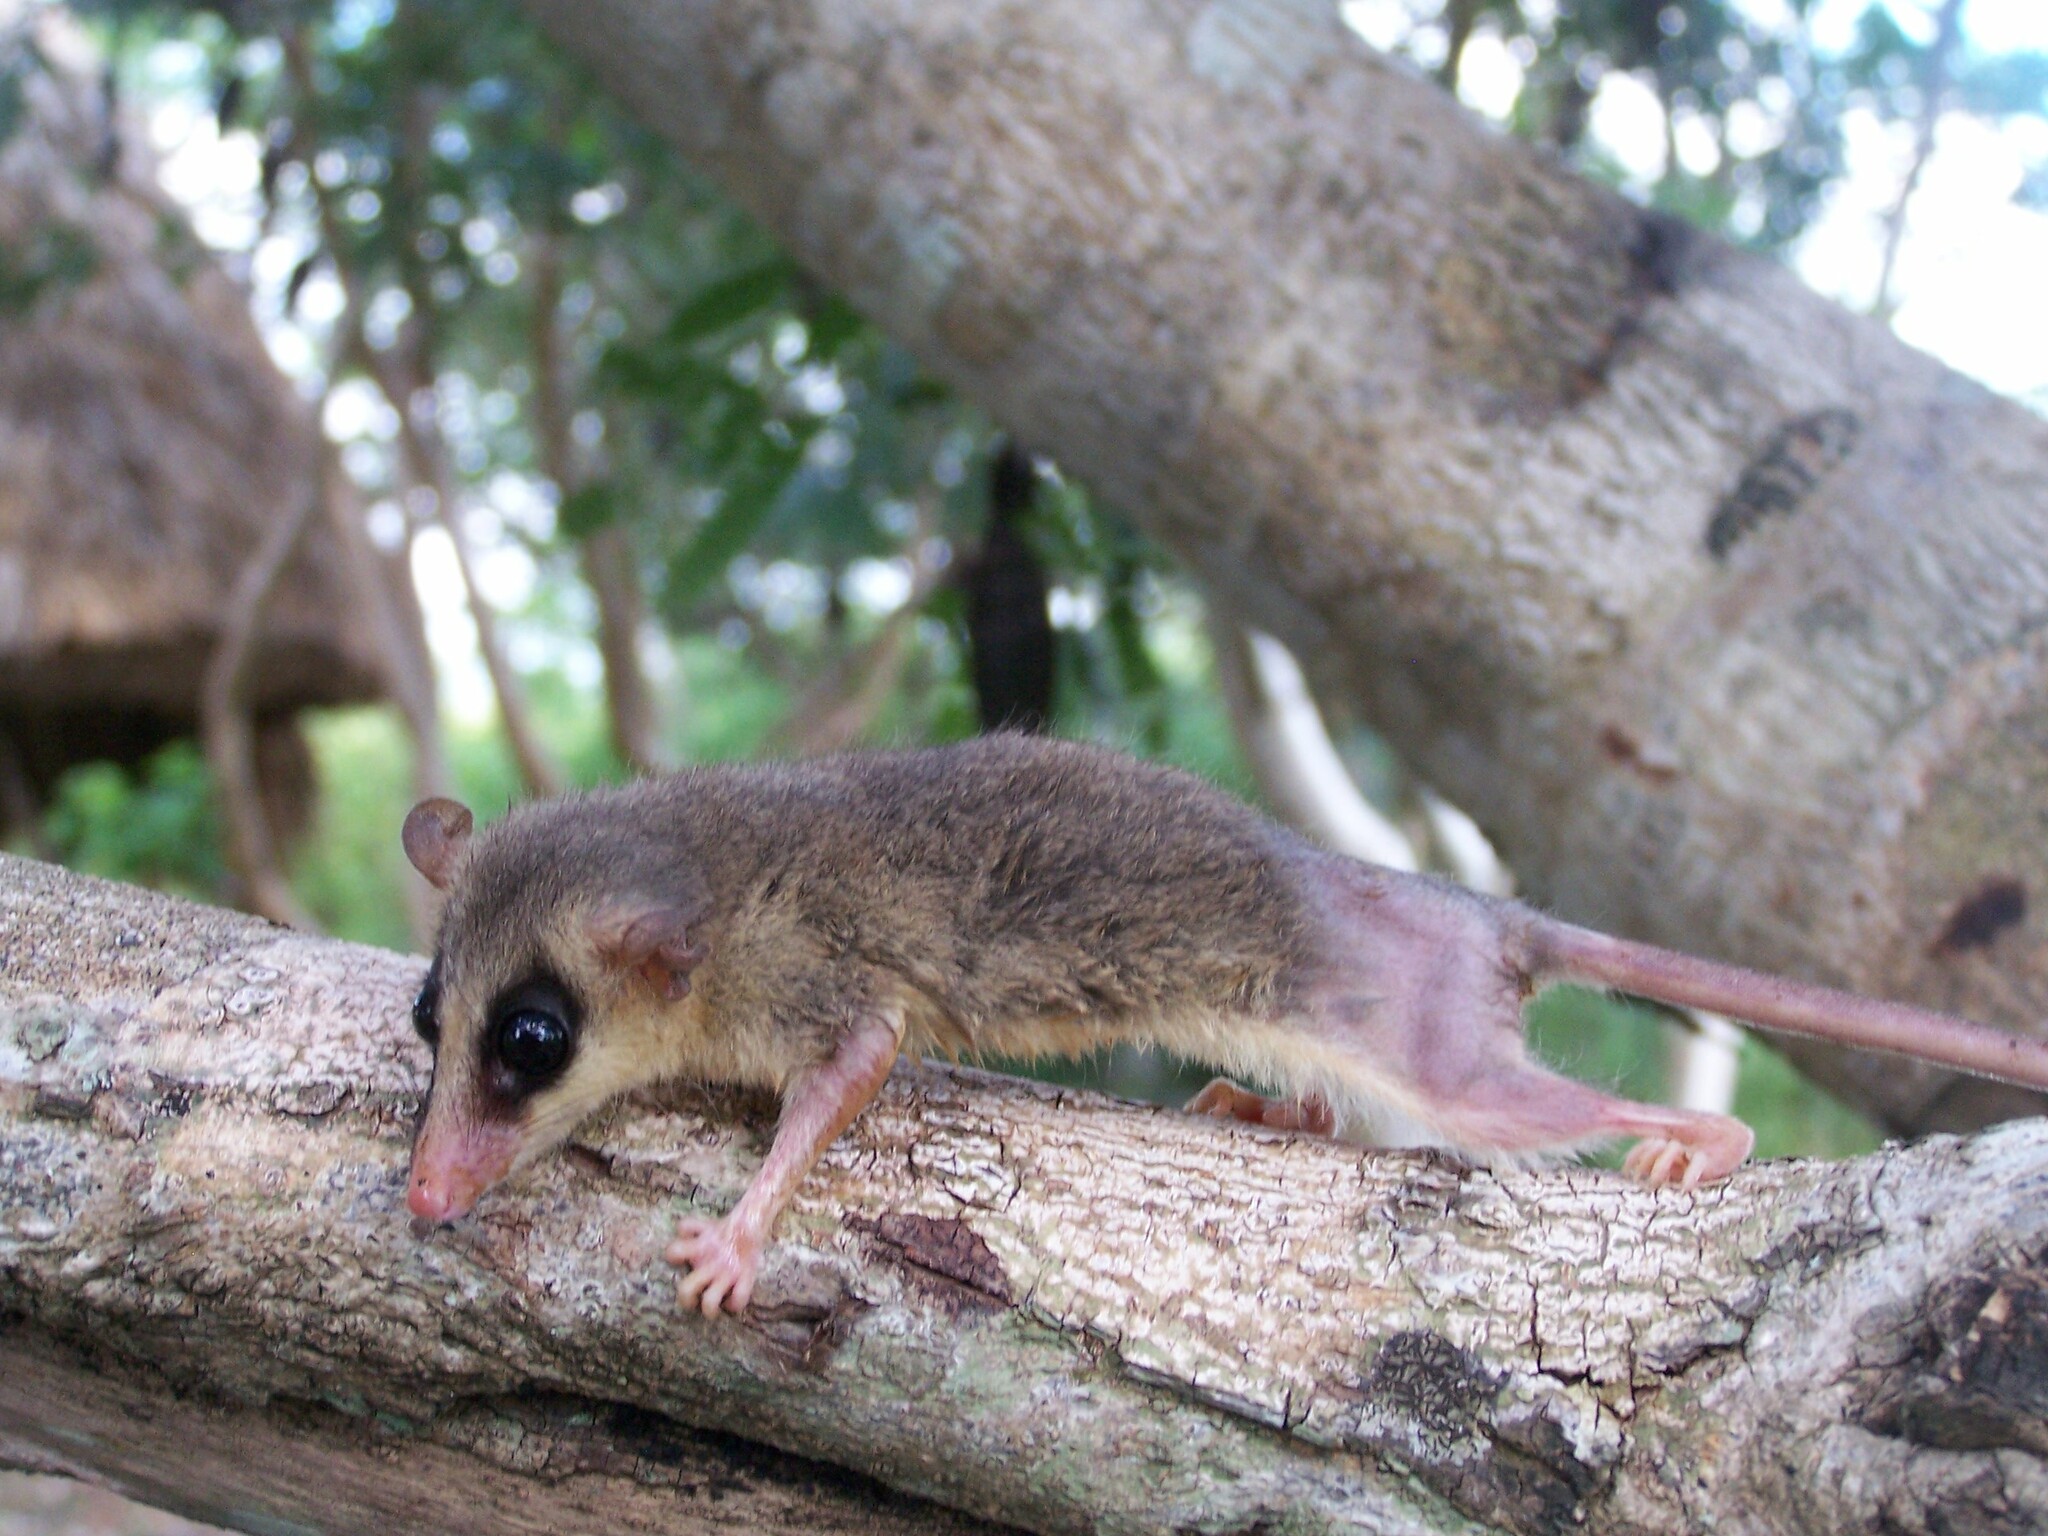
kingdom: Animalia
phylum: Chordata
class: Mammalia
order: Didelphimorphia
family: Didelphidae
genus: Tlacuatzin
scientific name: Tlacuatzin
